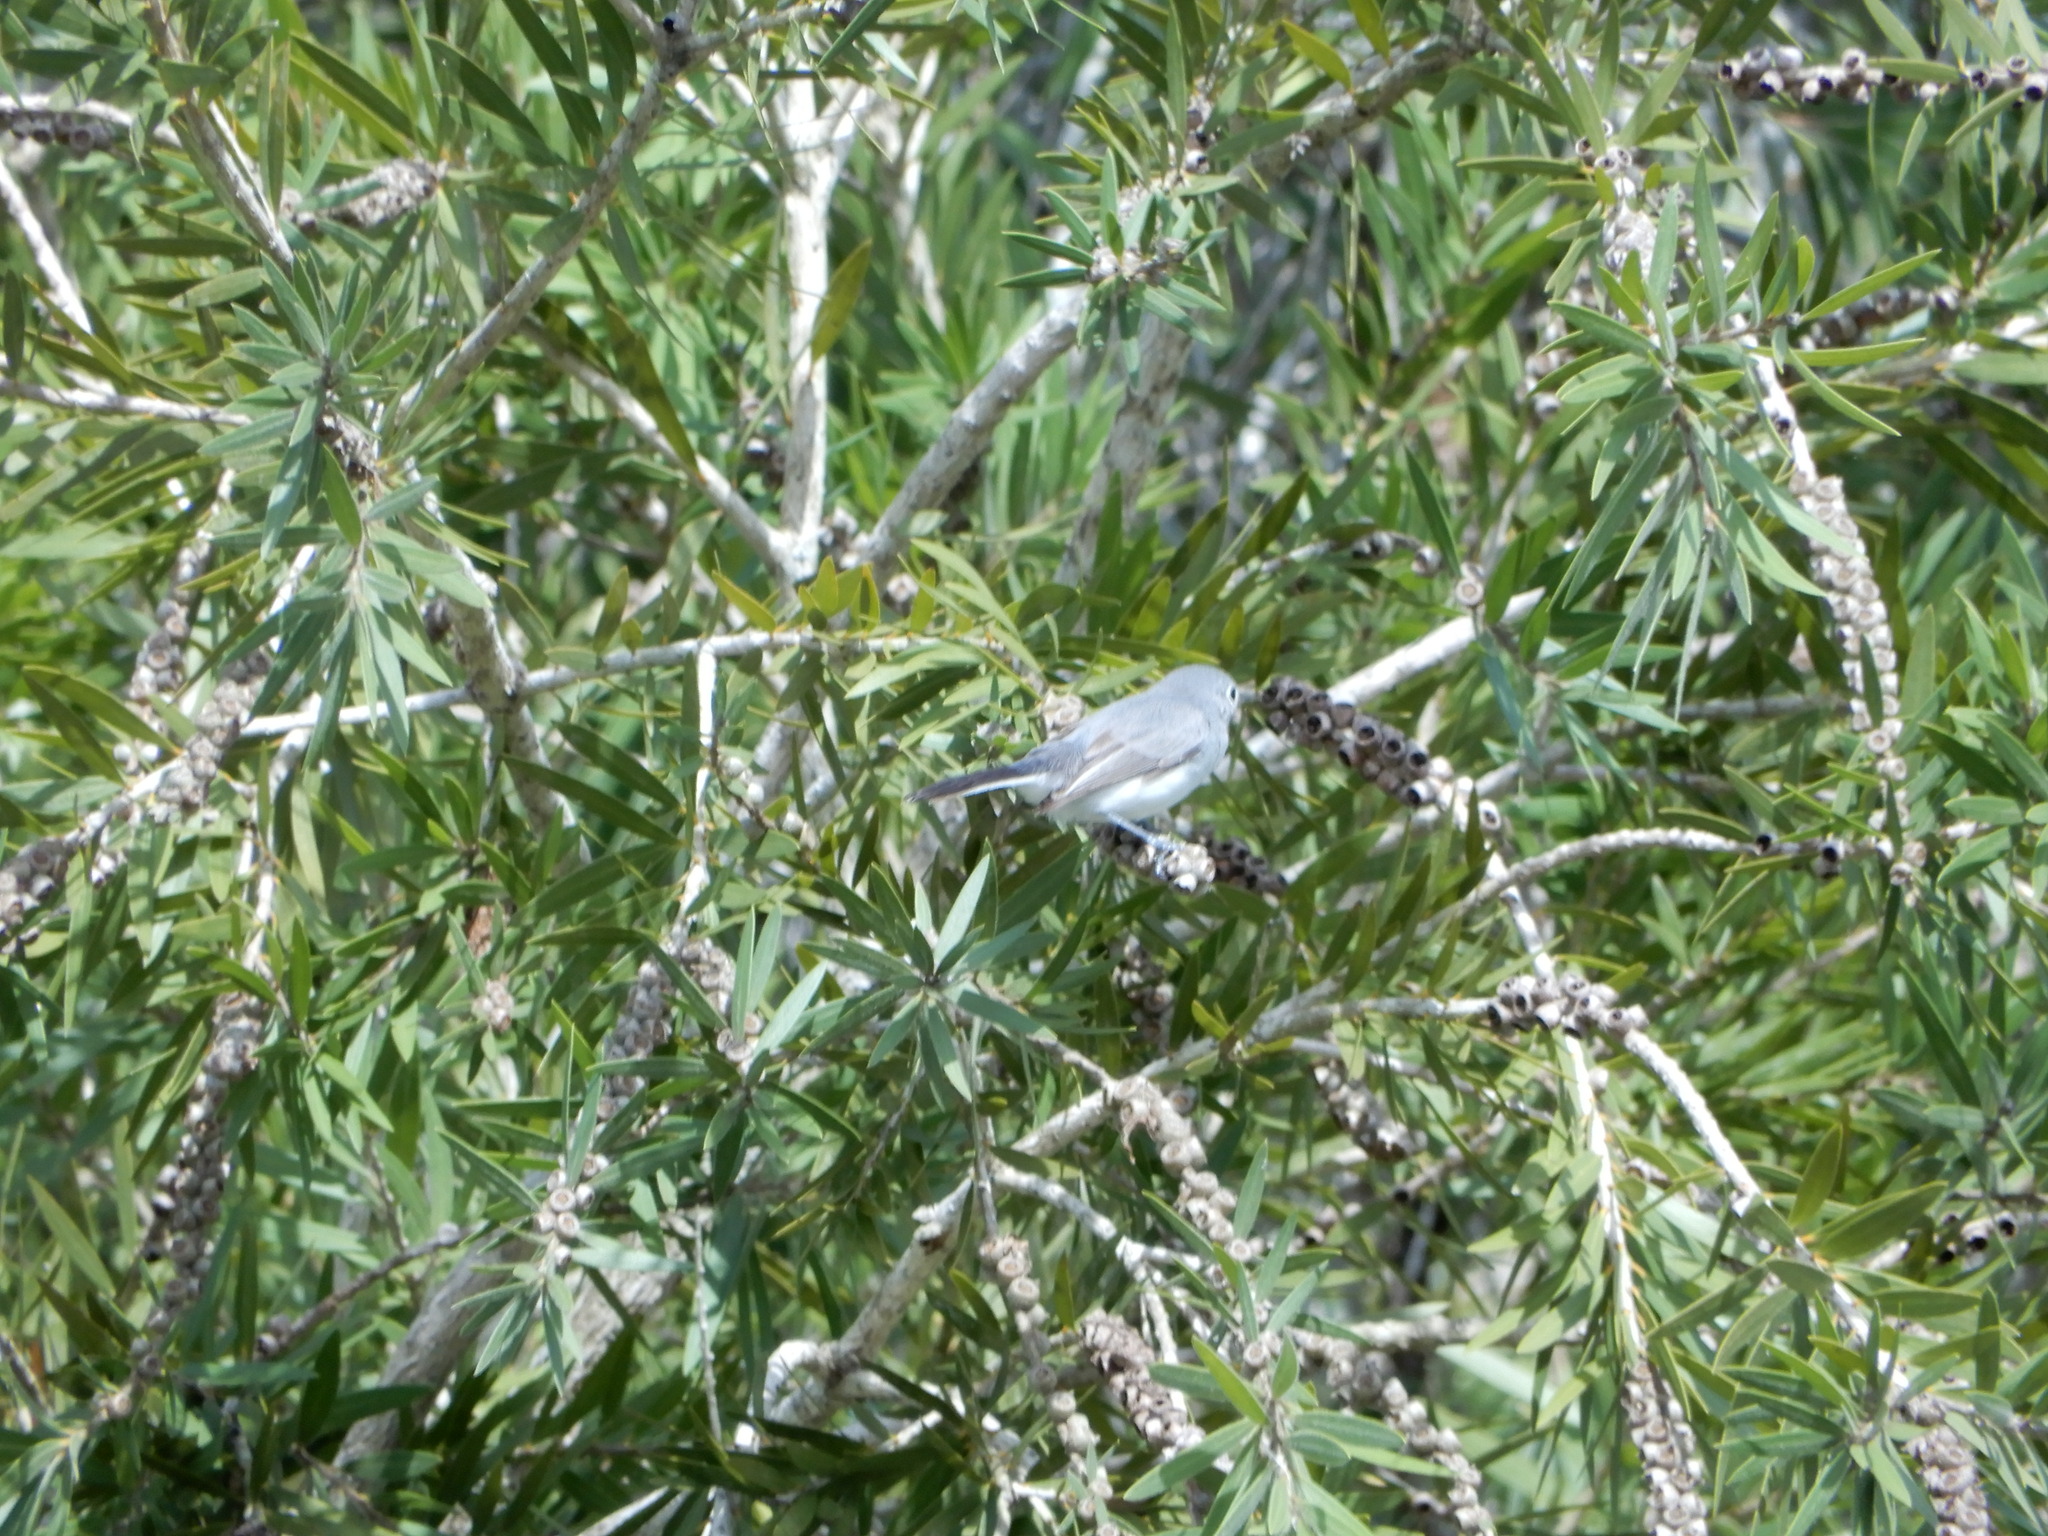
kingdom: Animalia
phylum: Chordata
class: Aves
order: Passeriformes
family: Polioptilidae
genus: Polioptila
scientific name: Polioptila caerulea
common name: Blue-gray gnatcatcher
